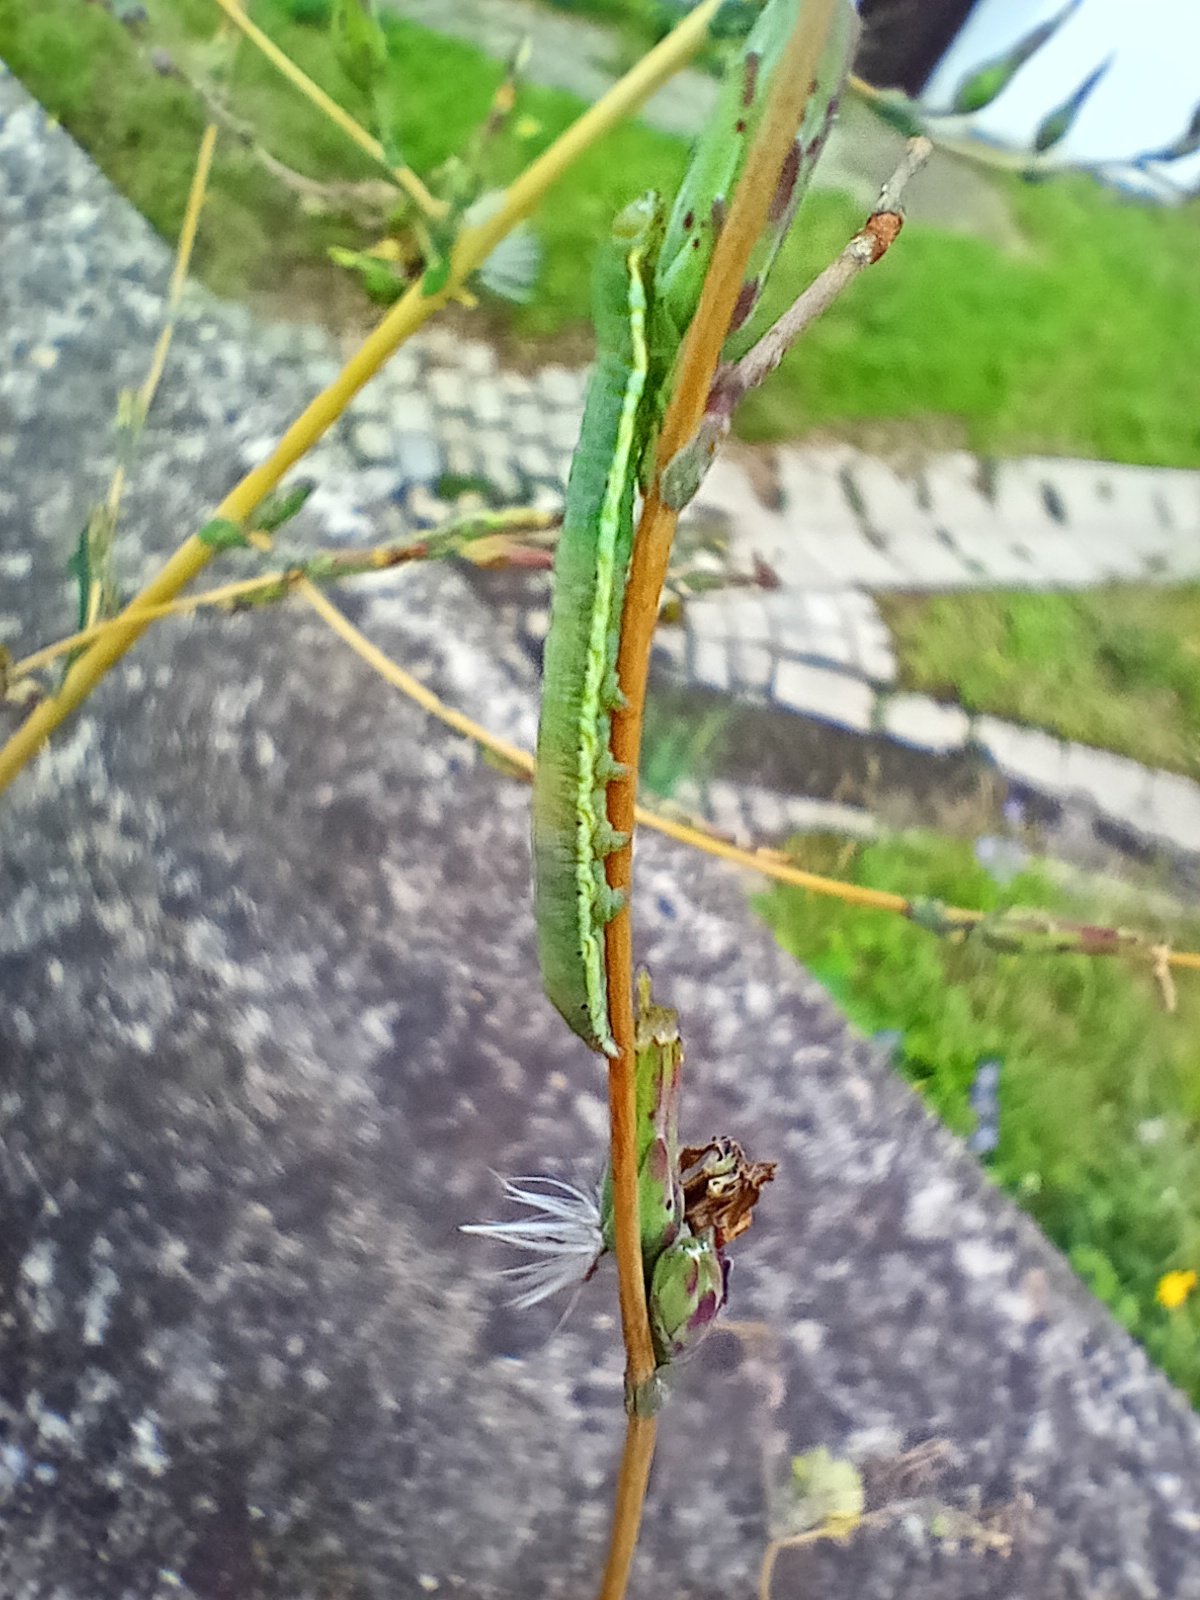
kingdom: Animalia
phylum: Arthropoda
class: Insecta
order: Lepidoptera
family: Noctuidae
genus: Hecatera
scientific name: Hecatera dysodea
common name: Small ranunculus
